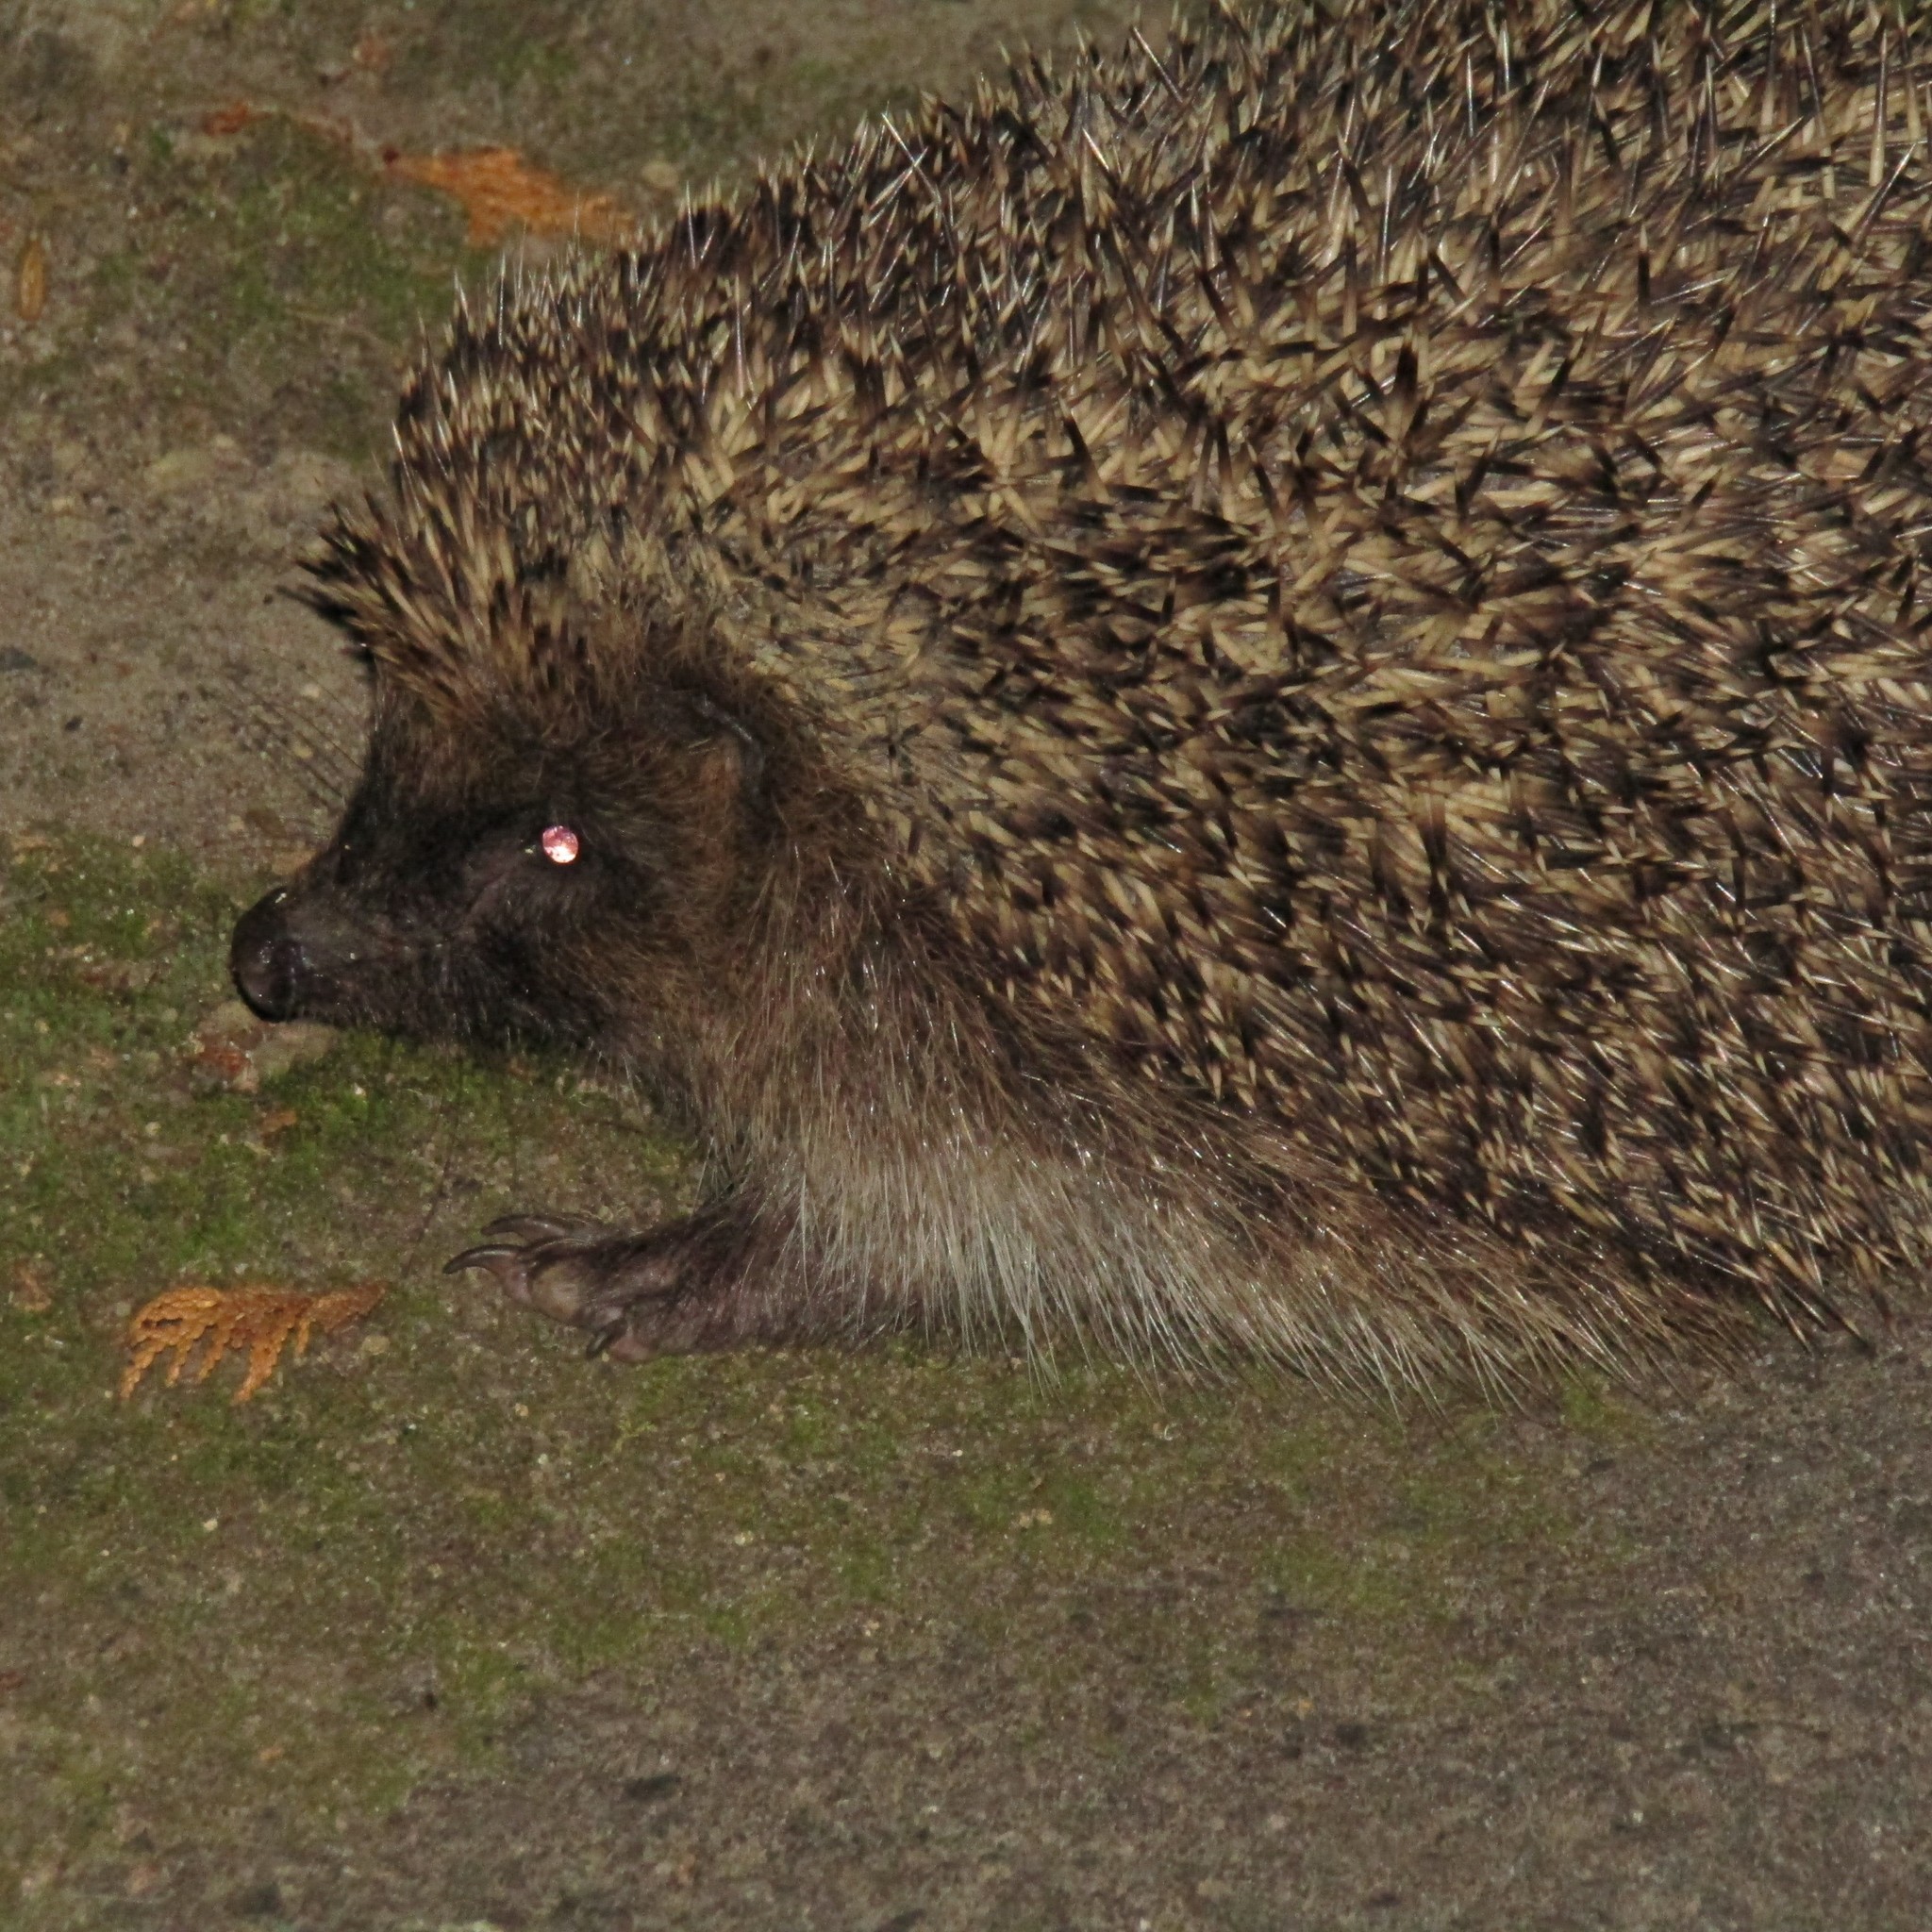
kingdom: Animalia
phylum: Chordata
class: Mammalia
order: Erinaceomorpha
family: Erinaceidae
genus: Erinaceus
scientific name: Erinaceus europaeus
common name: West european hedgehog
